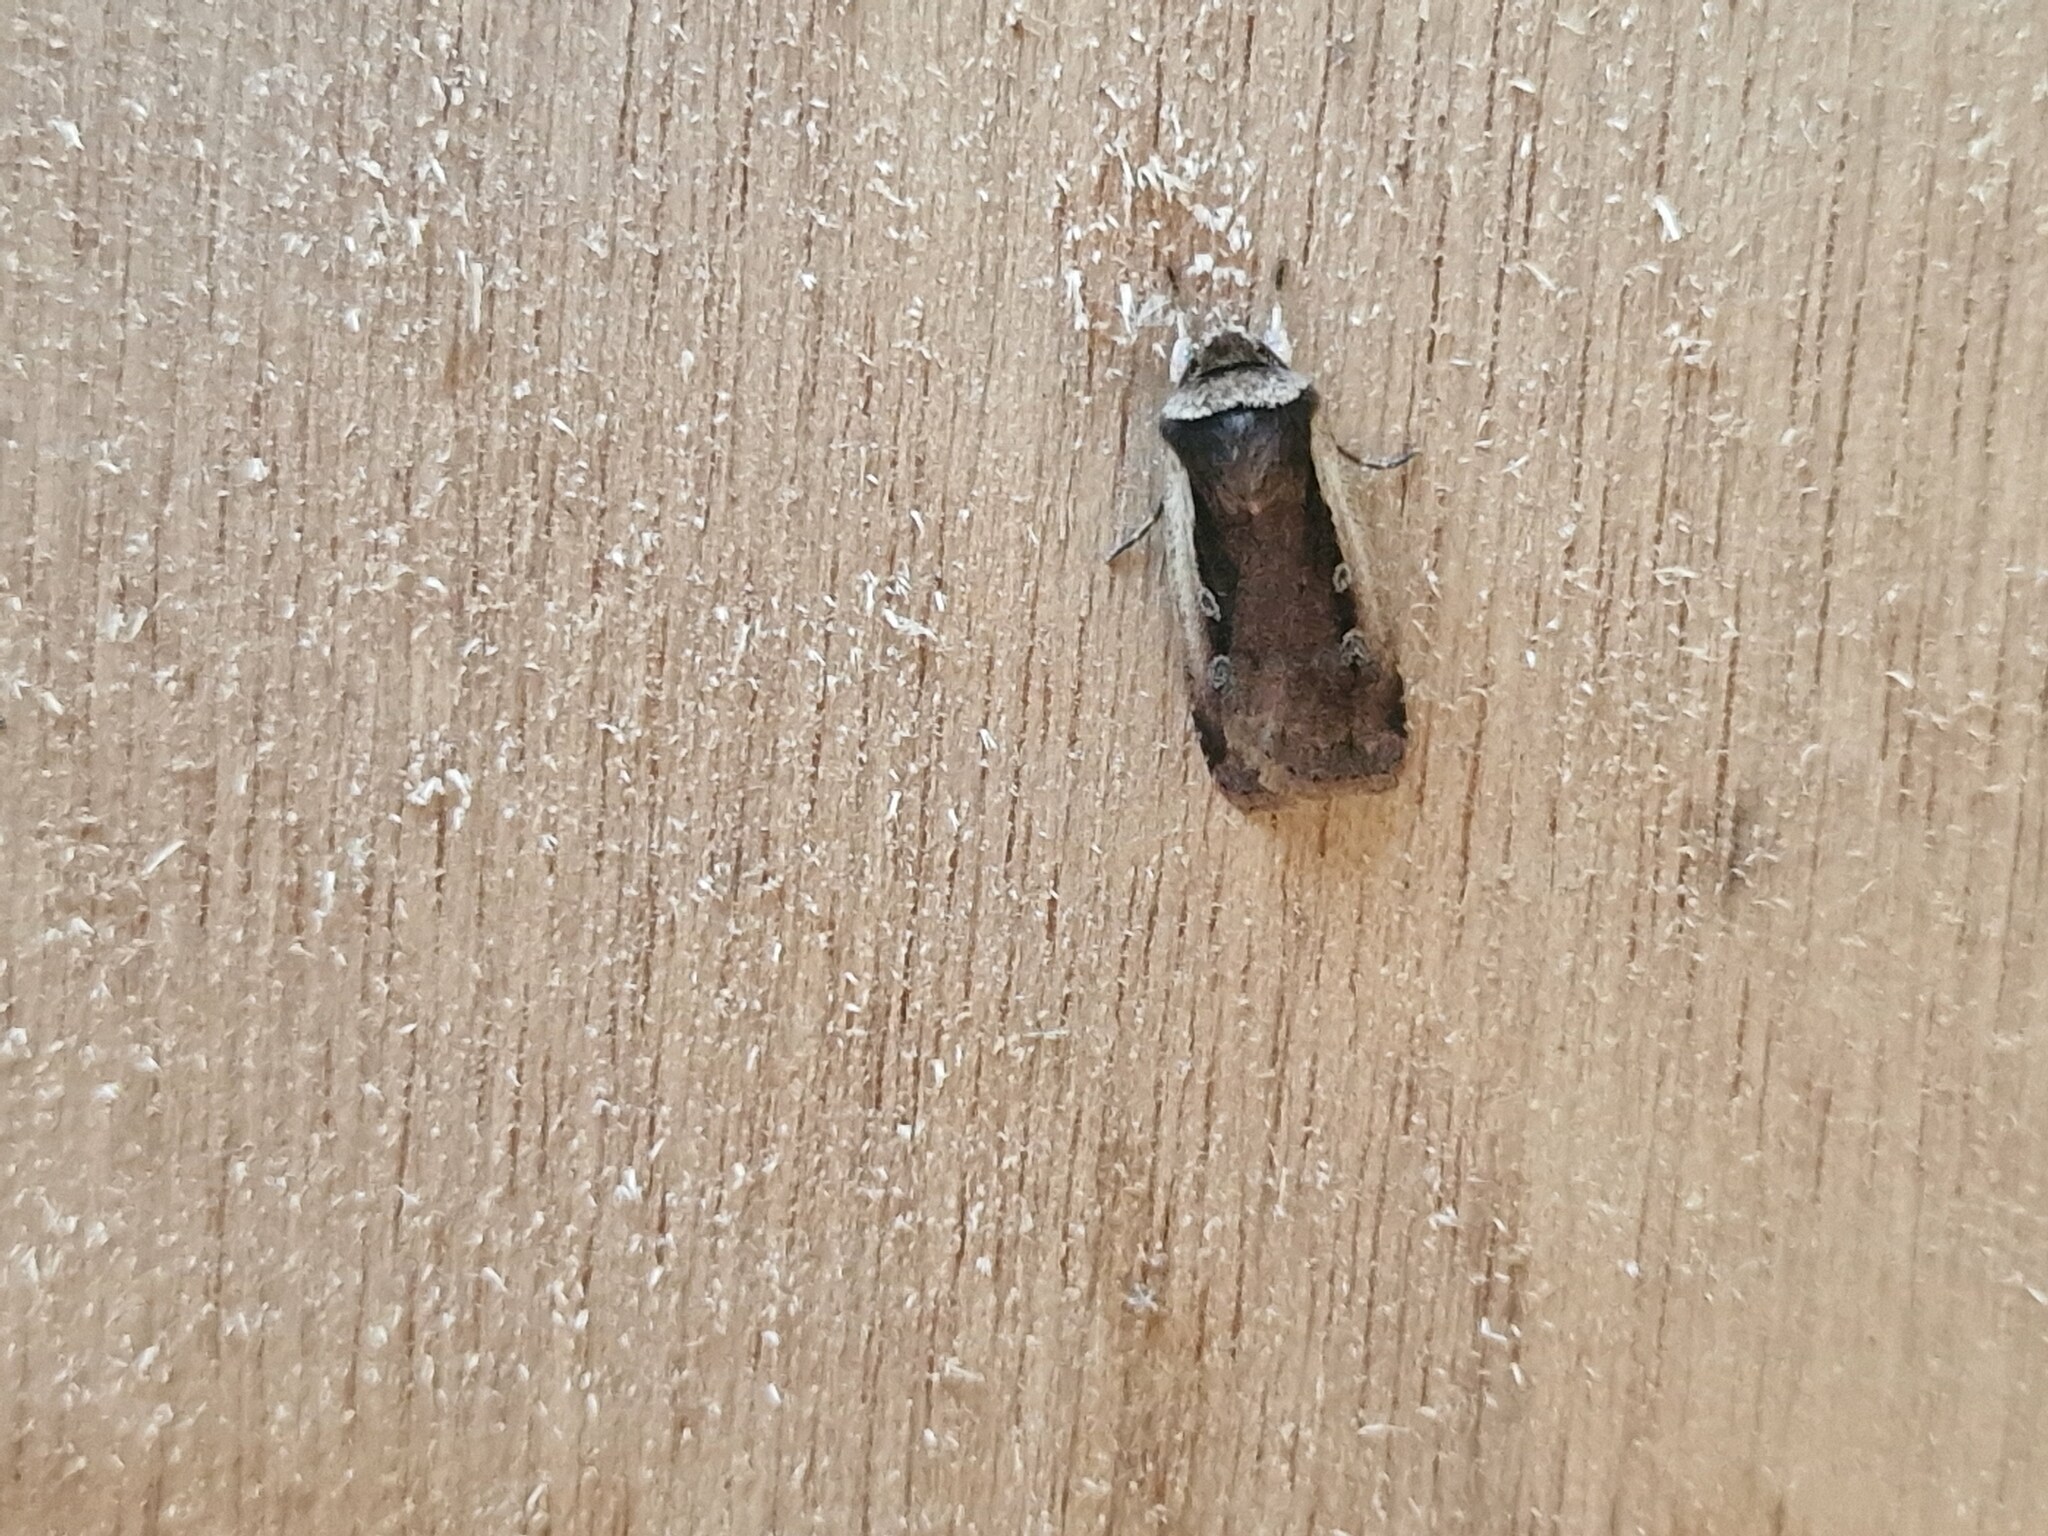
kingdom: Animalia
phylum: Arthropoda
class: Insecta
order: Lepidoptera
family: Noctuidae
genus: Ochropleura
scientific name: Ochropleura plecta
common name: Flame shoulder
